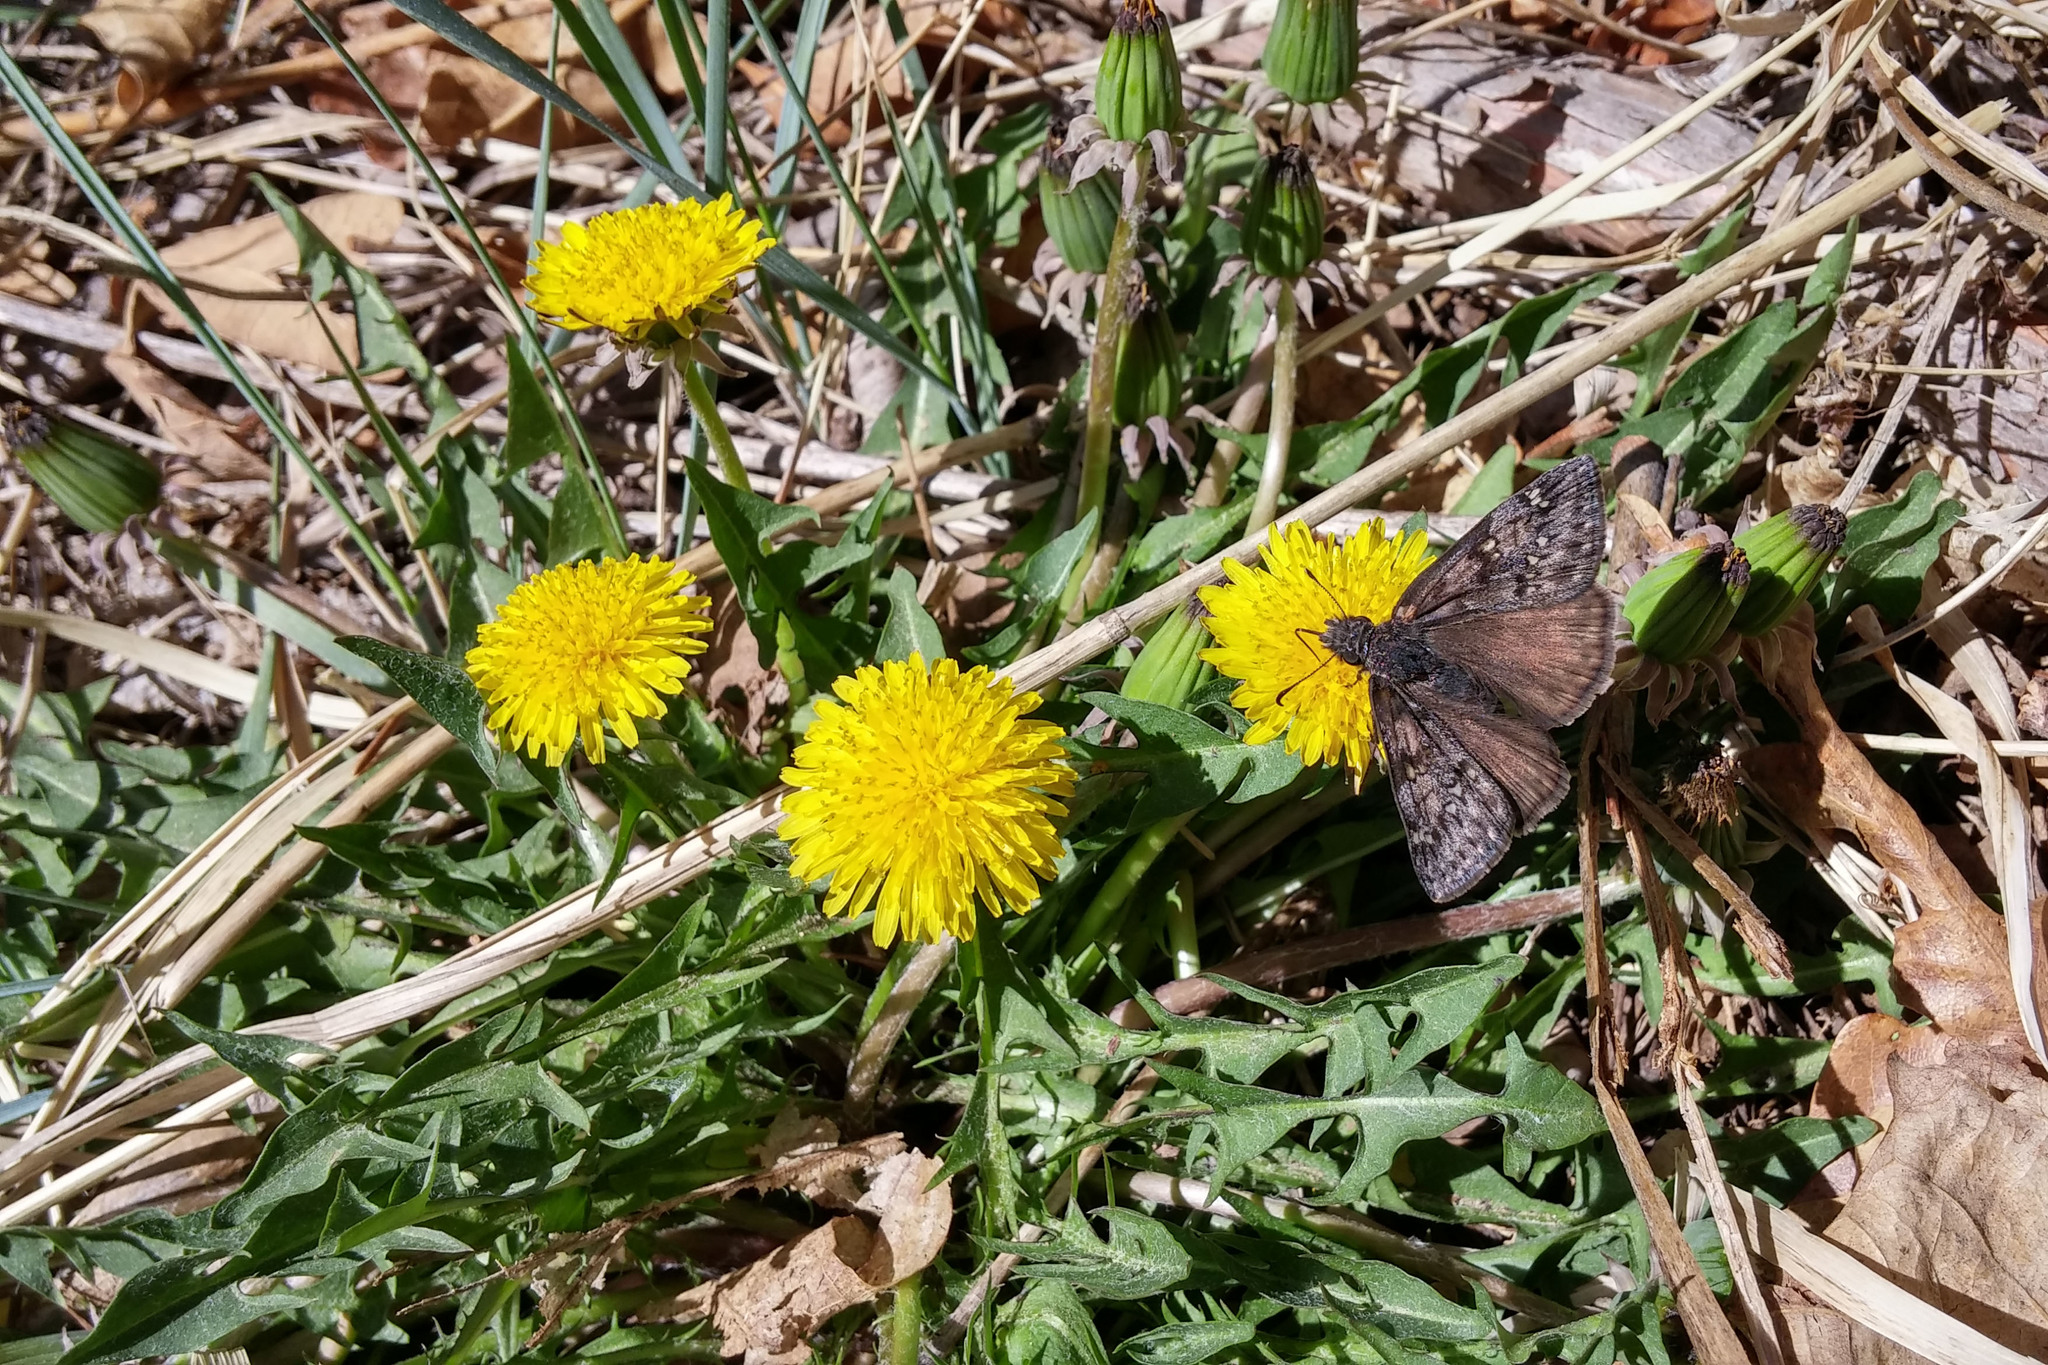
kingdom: Plantae
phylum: Tracheophyta
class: Magnoliopsida
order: Asterales
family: Asteraceae
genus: Taraxacum
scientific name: Taraxacum officinale
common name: Common dandelion
